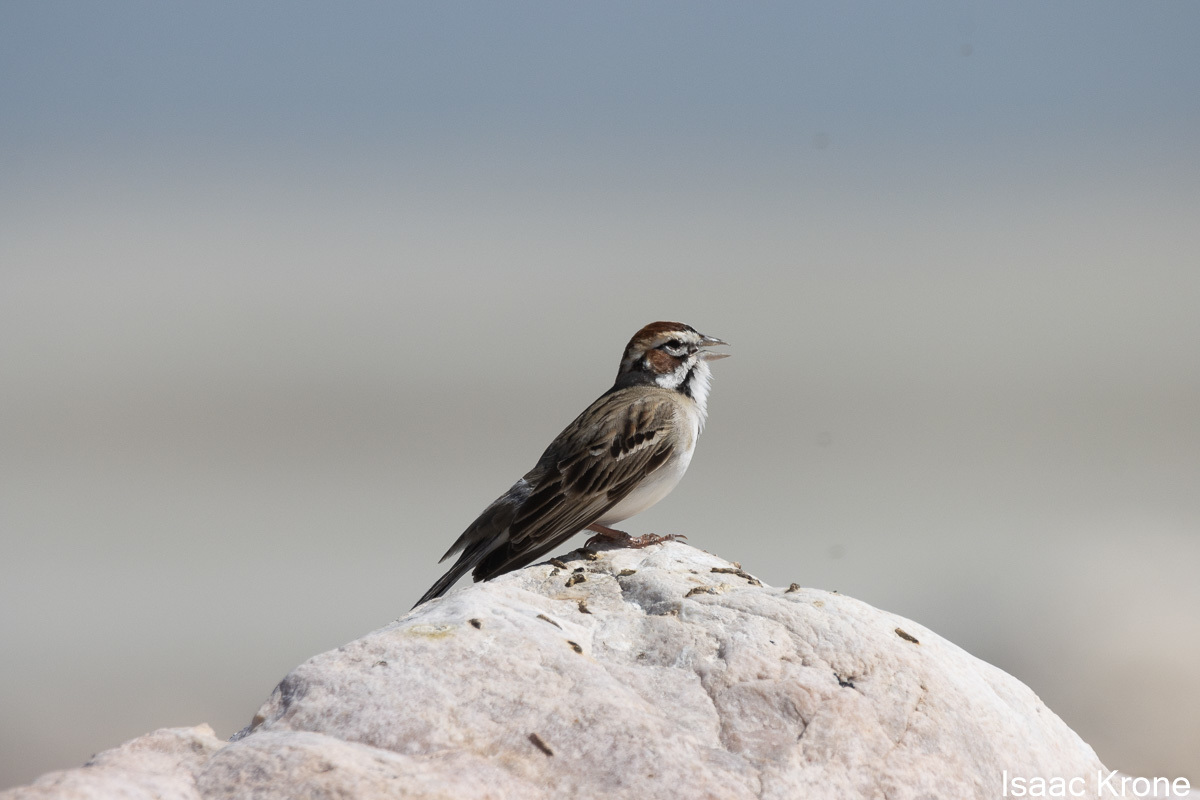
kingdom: Animalia
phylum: Chordata
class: Aves
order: Passeriformes
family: Passerellidae
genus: Chondestes
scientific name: Chondestes grammacus
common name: Lark sparrow
